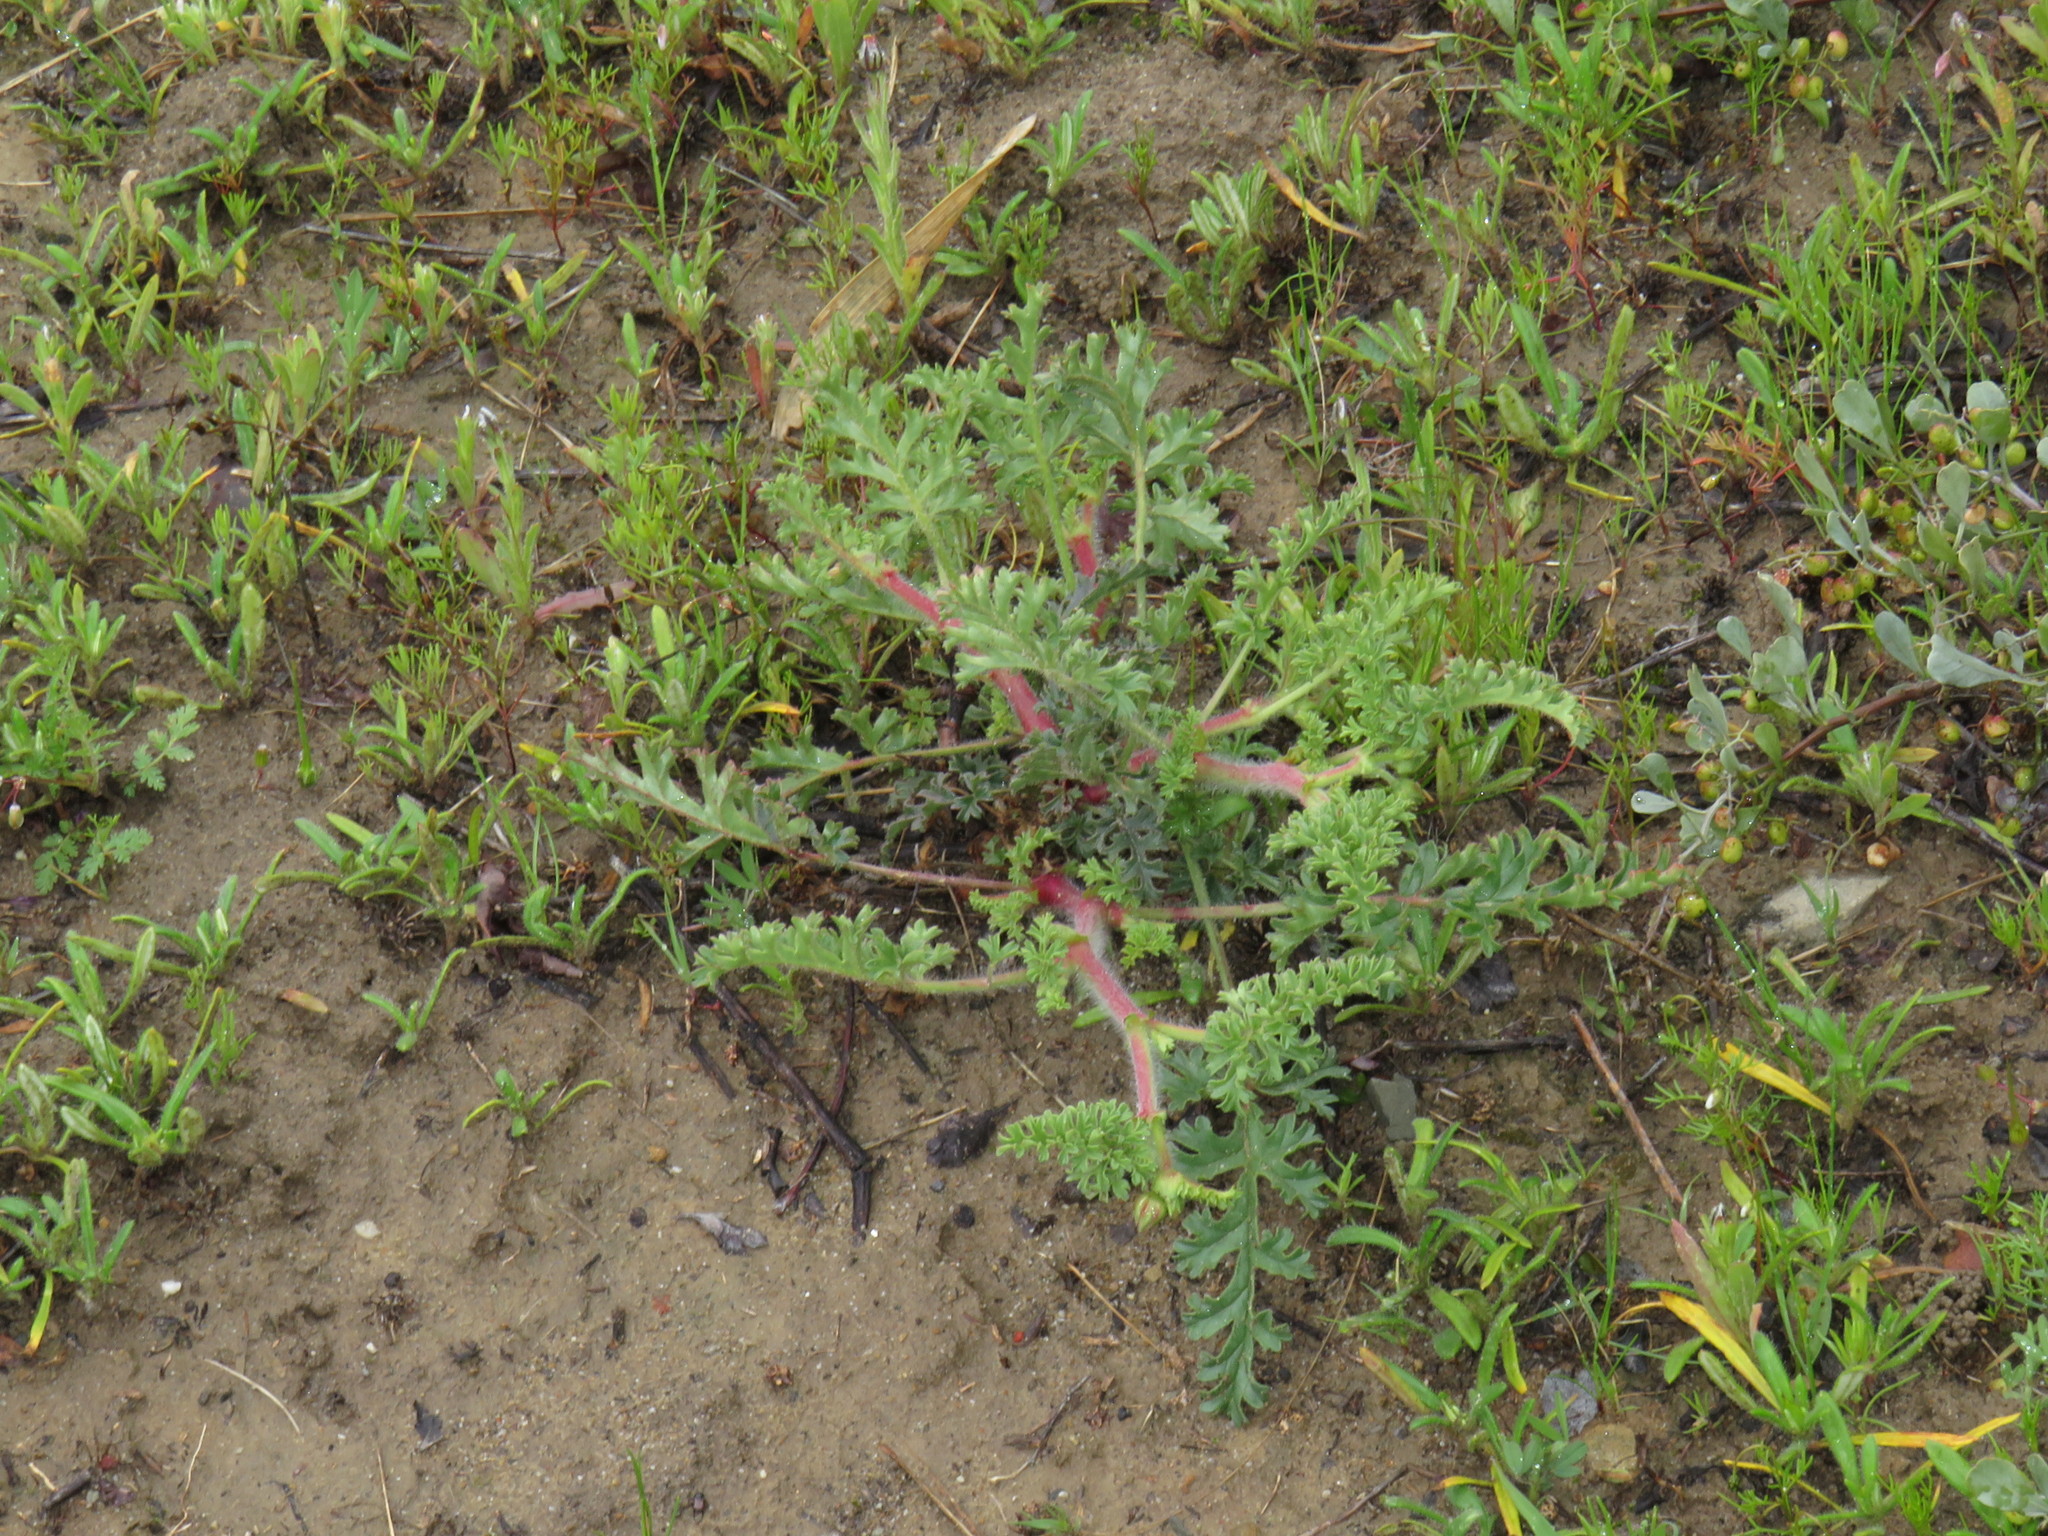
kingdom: Plantae
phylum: Tracheophyta
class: Magnoliopsida
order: Geraniales
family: Geraniaceae
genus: Pelargonium
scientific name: Pelargonium myrrhifolium
